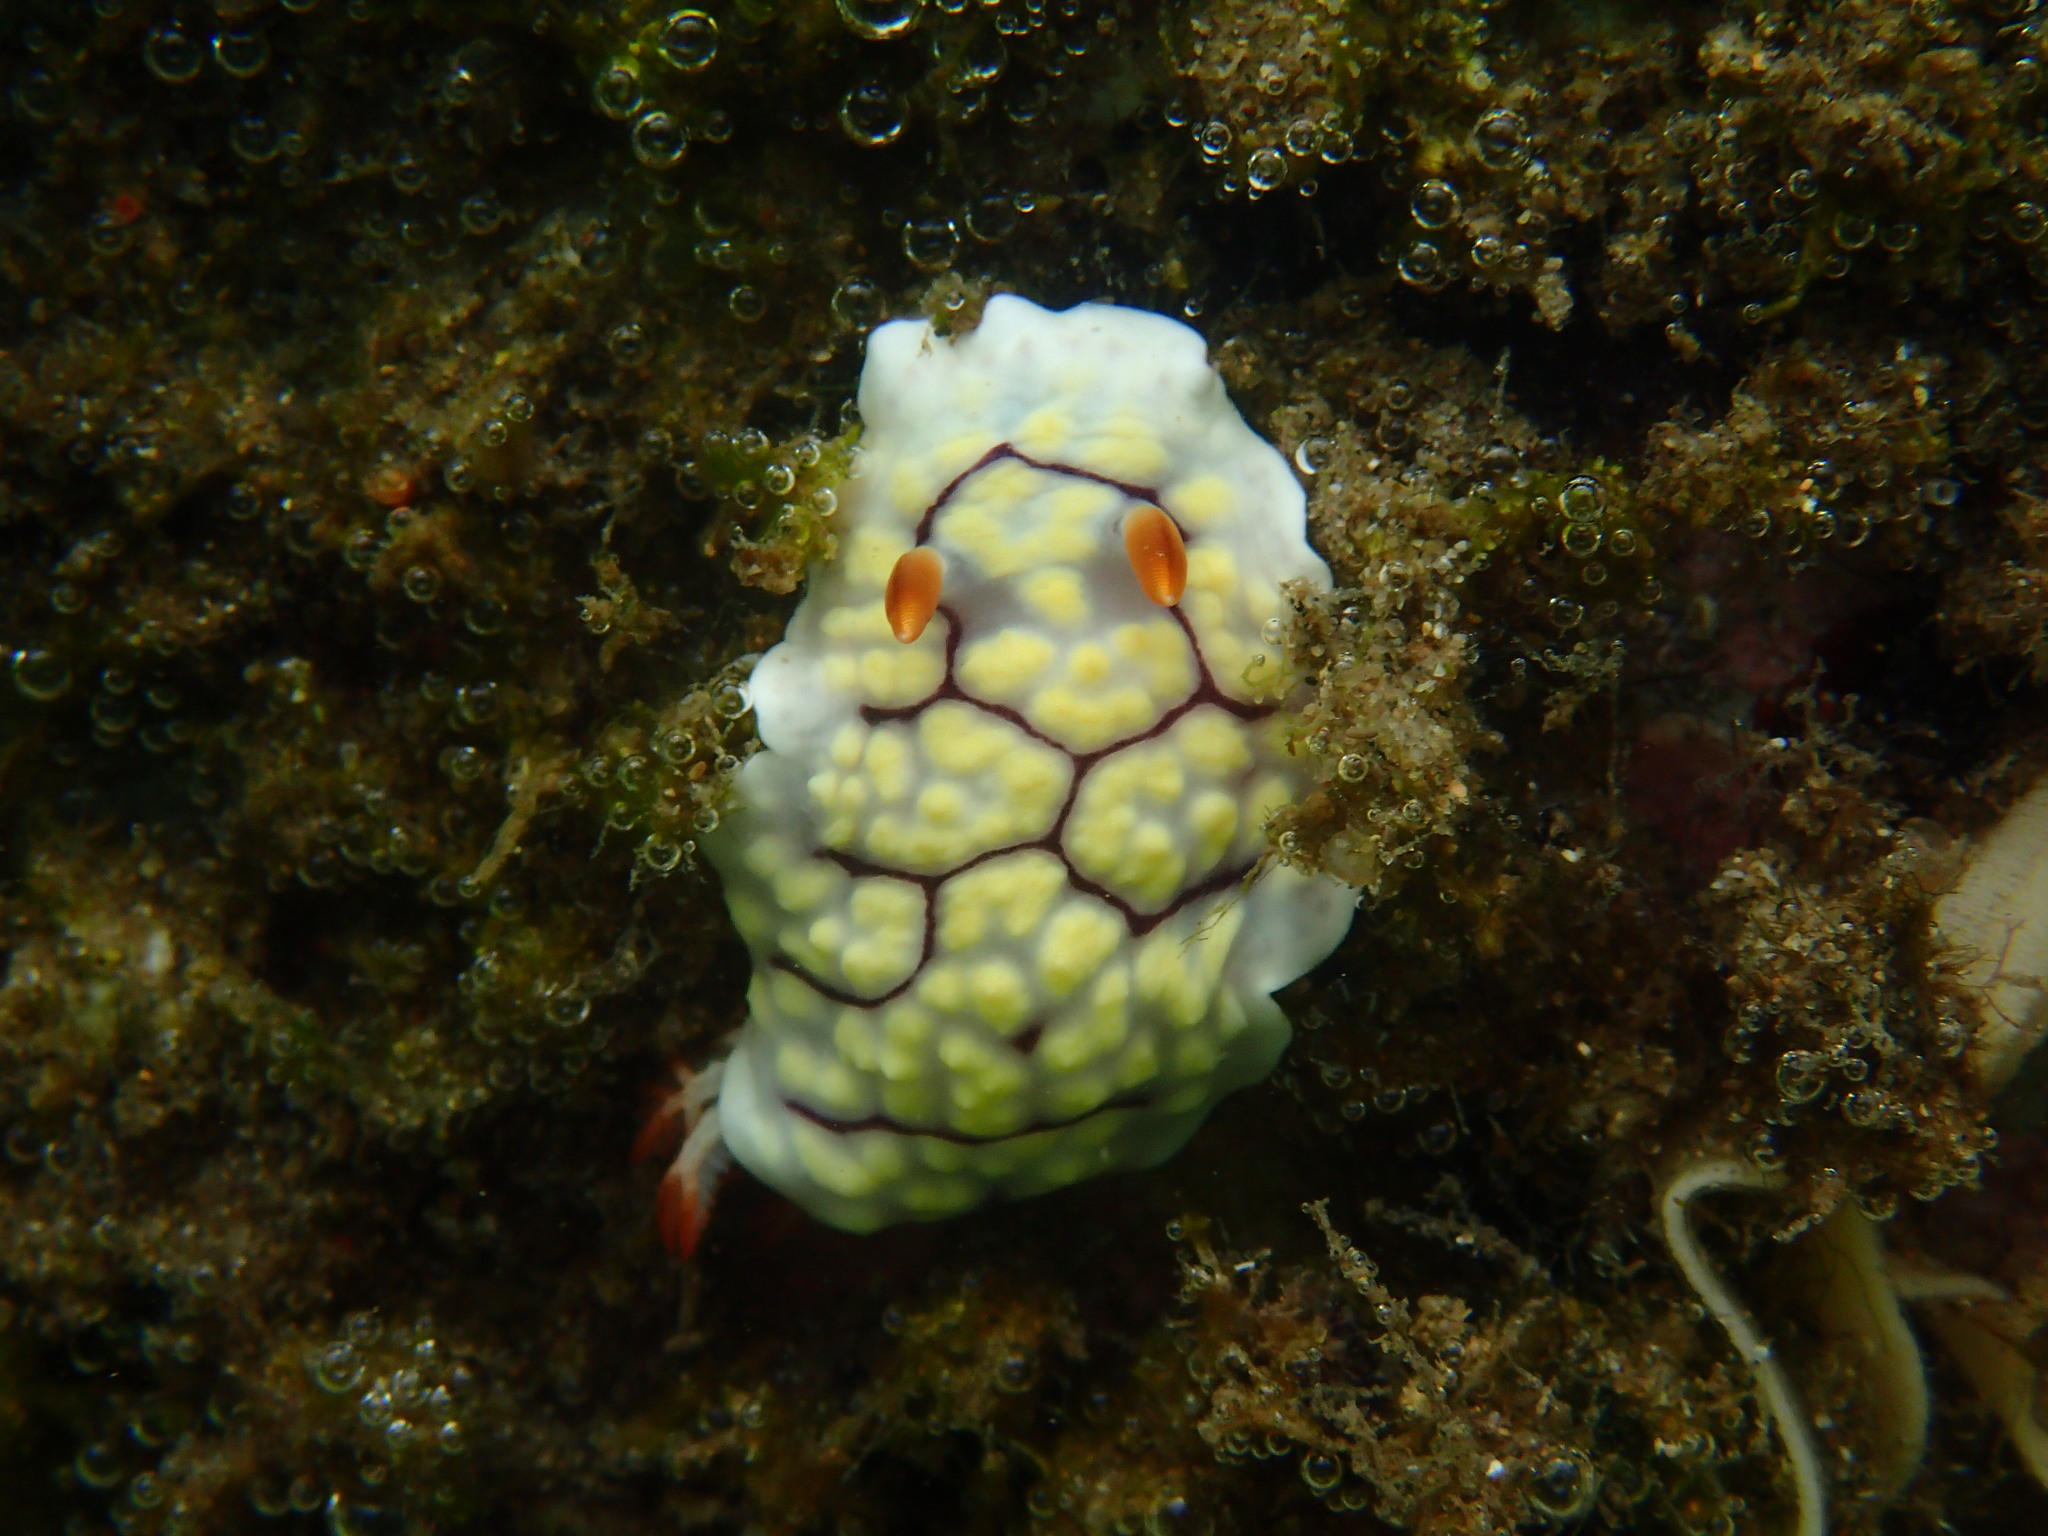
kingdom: Animalia
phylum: Mollusca
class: Gastropoda
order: Nudibranchia
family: Chromodorididae
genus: Goniobranchus
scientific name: Goniobranchus conchyliatus
